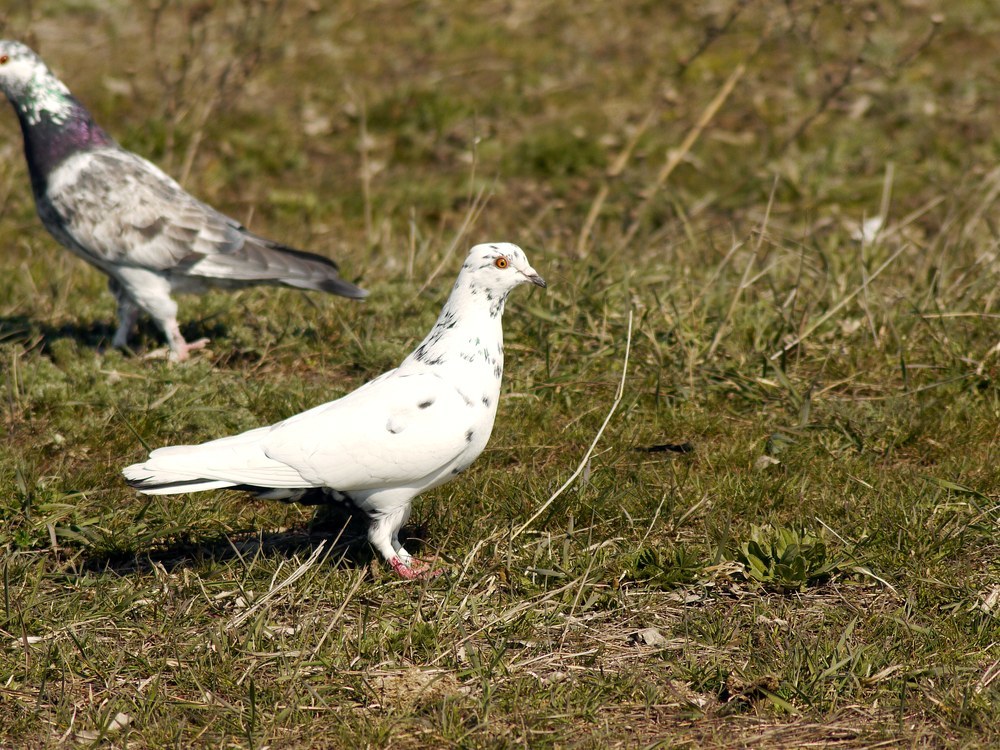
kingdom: Animalia
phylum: Chordata
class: Aves
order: Columbiformes
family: Columbidae
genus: Columba
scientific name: Columba livia
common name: Rock pigeon
